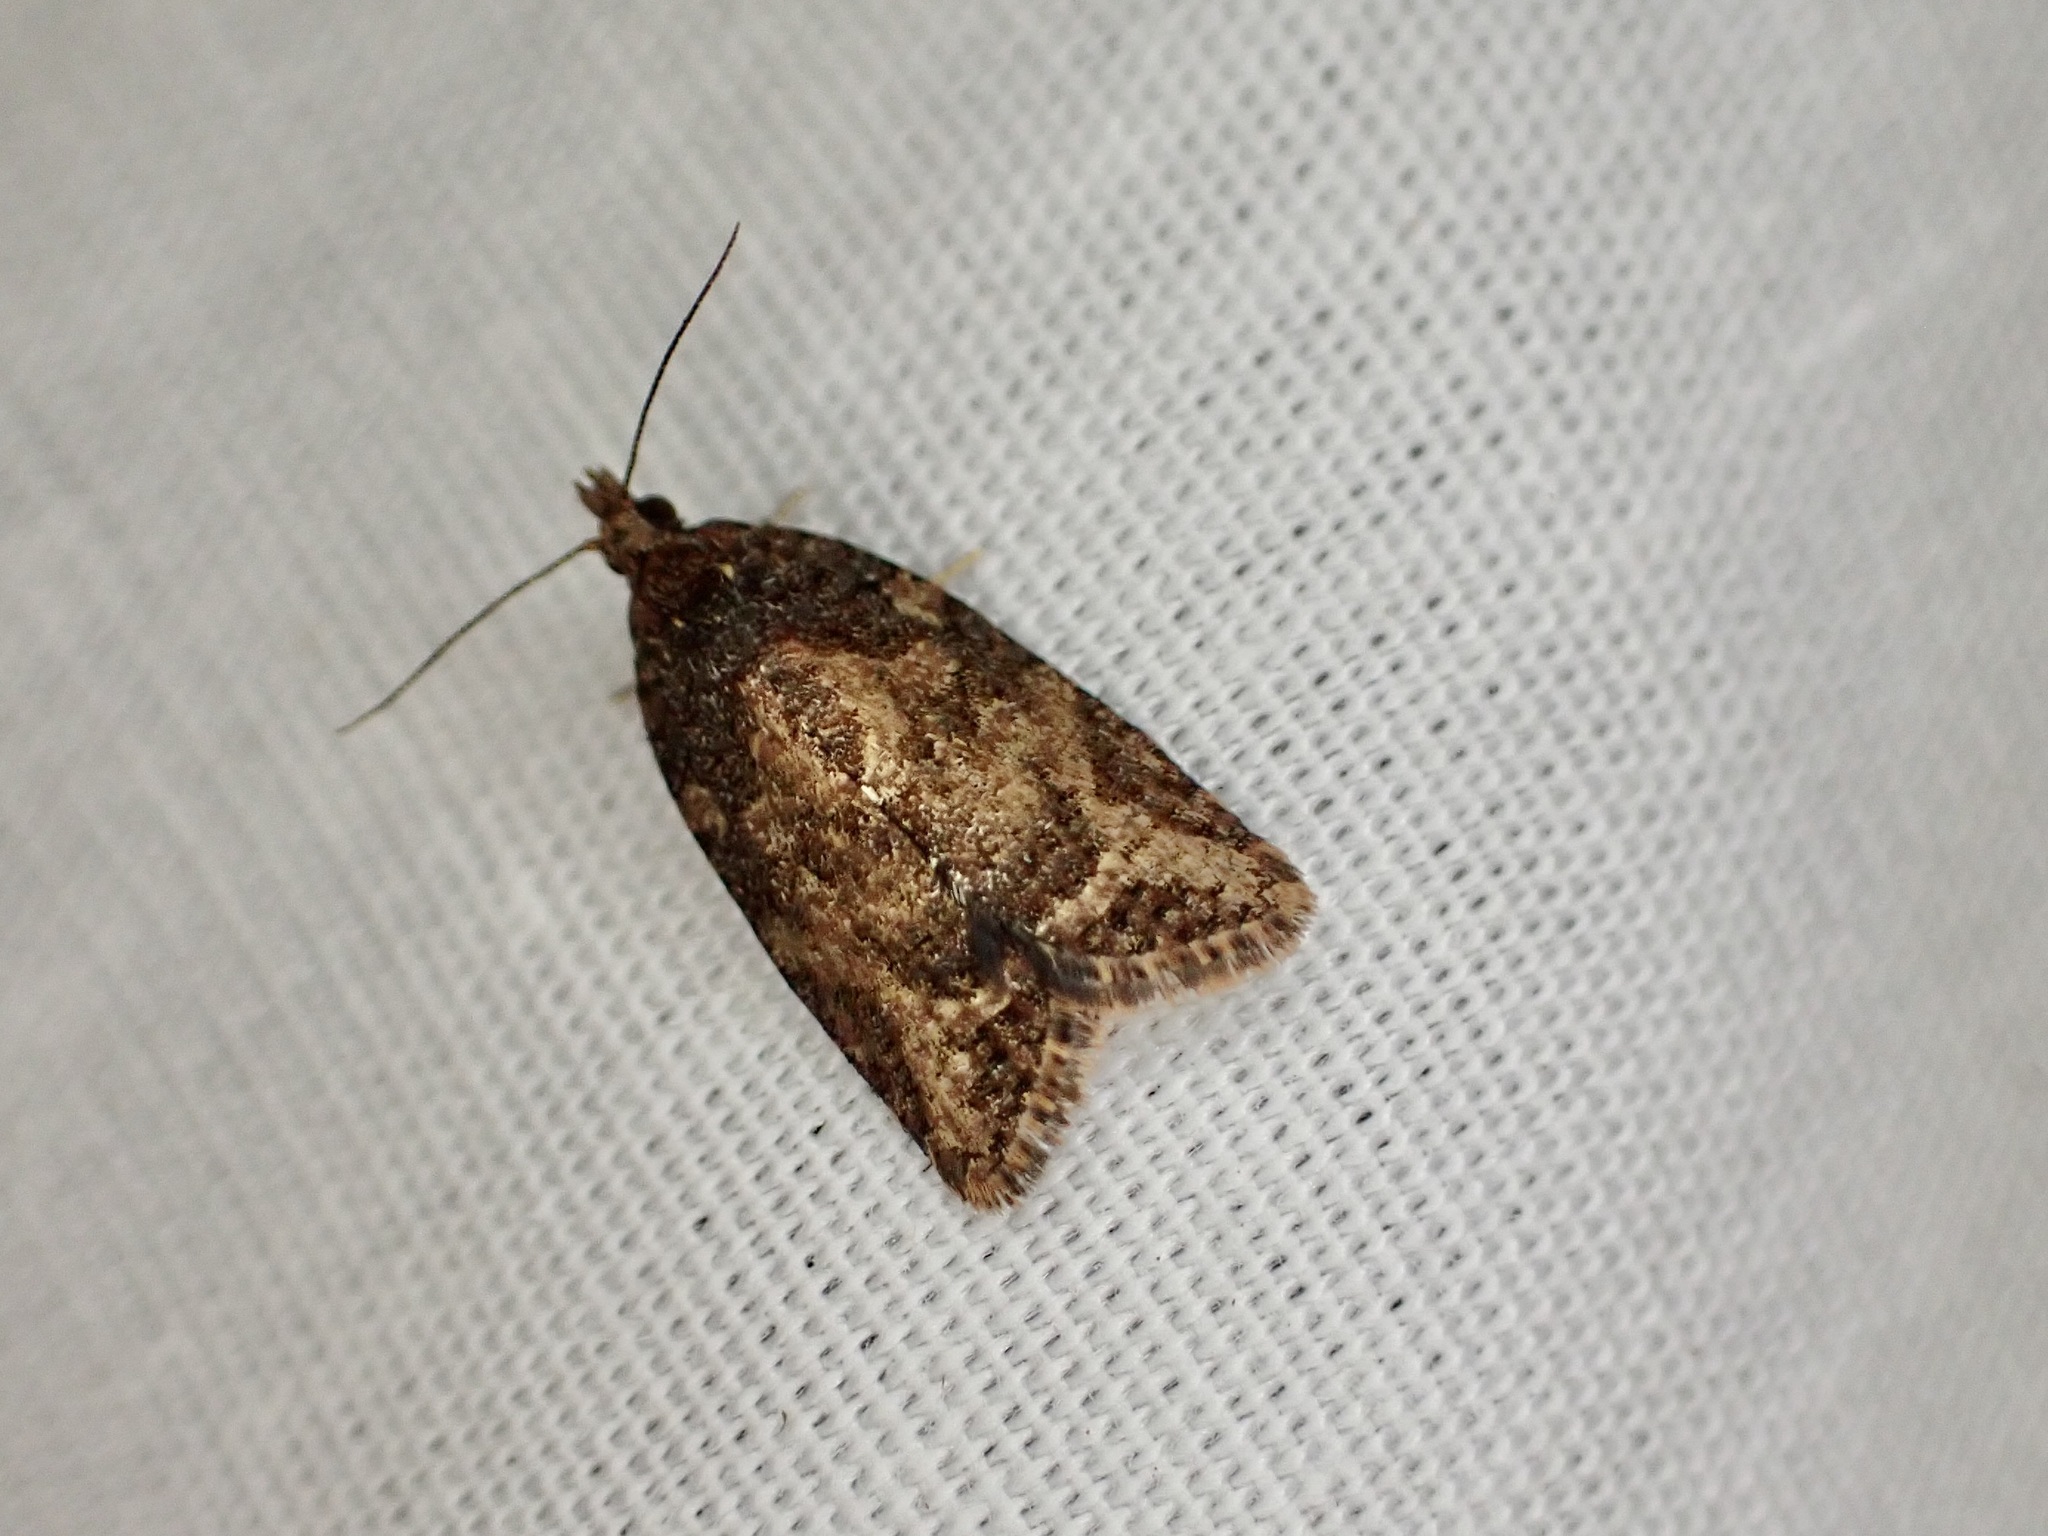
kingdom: Animalia
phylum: Arthropoda
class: Insecta
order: Lepidoptera
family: Tortricidae
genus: Capua
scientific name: Capua intractana
